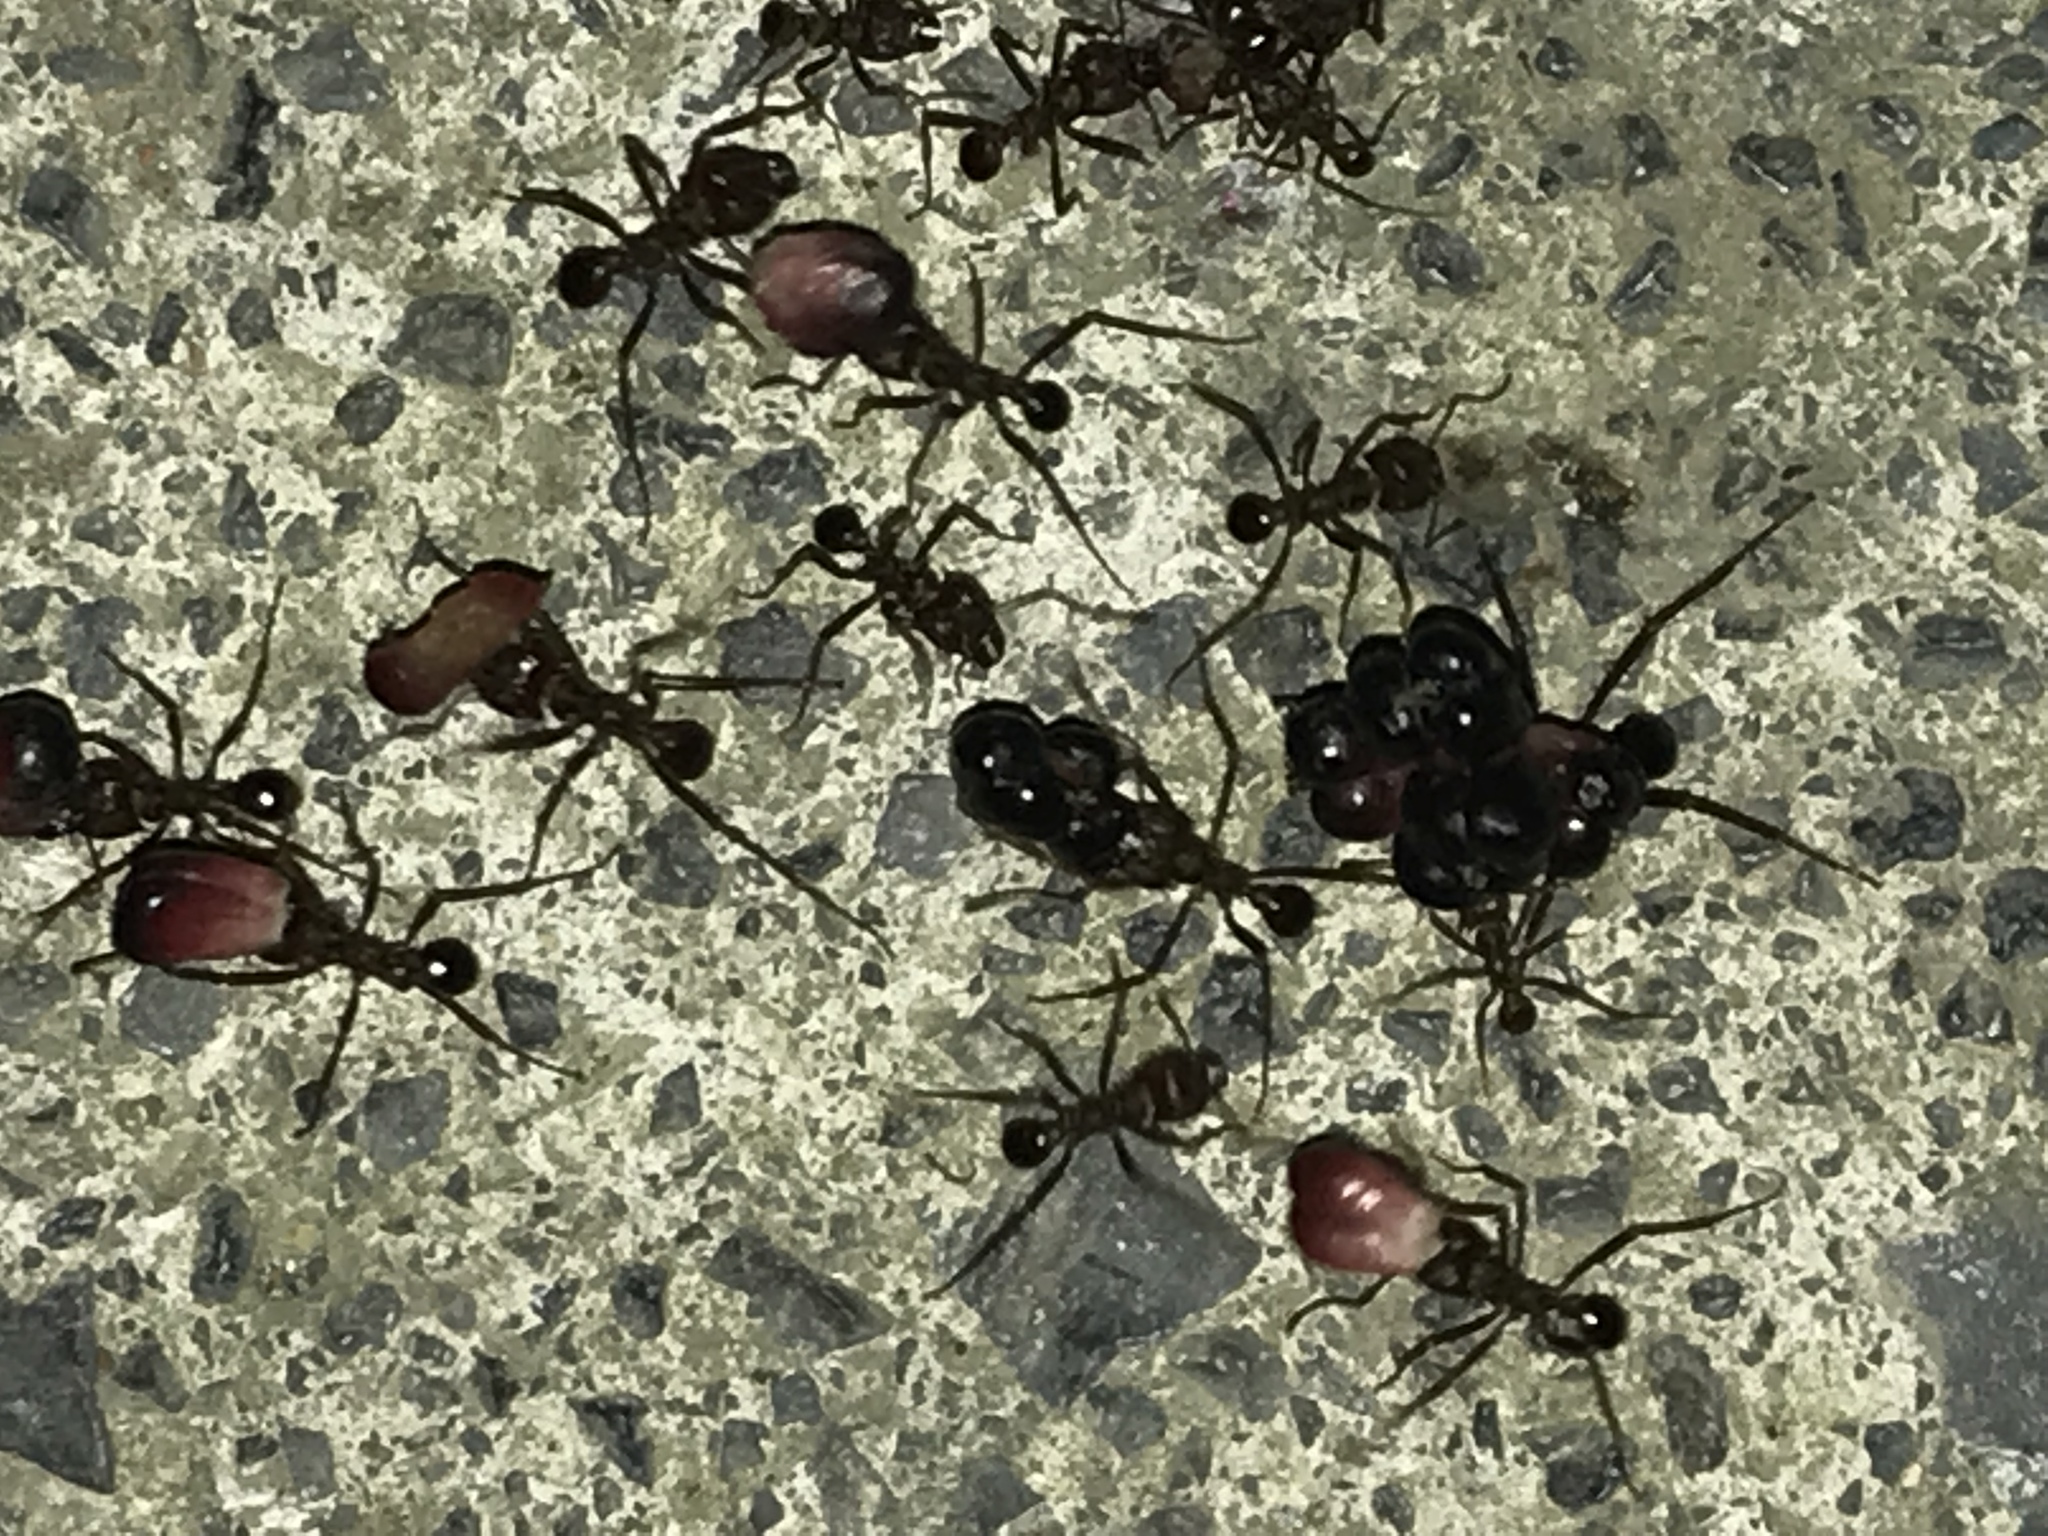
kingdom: Animalia
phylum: Arthropoda
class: Insecta
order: Hymenoptera
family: Formicidae
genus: Atta
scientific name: Atta mexicana
